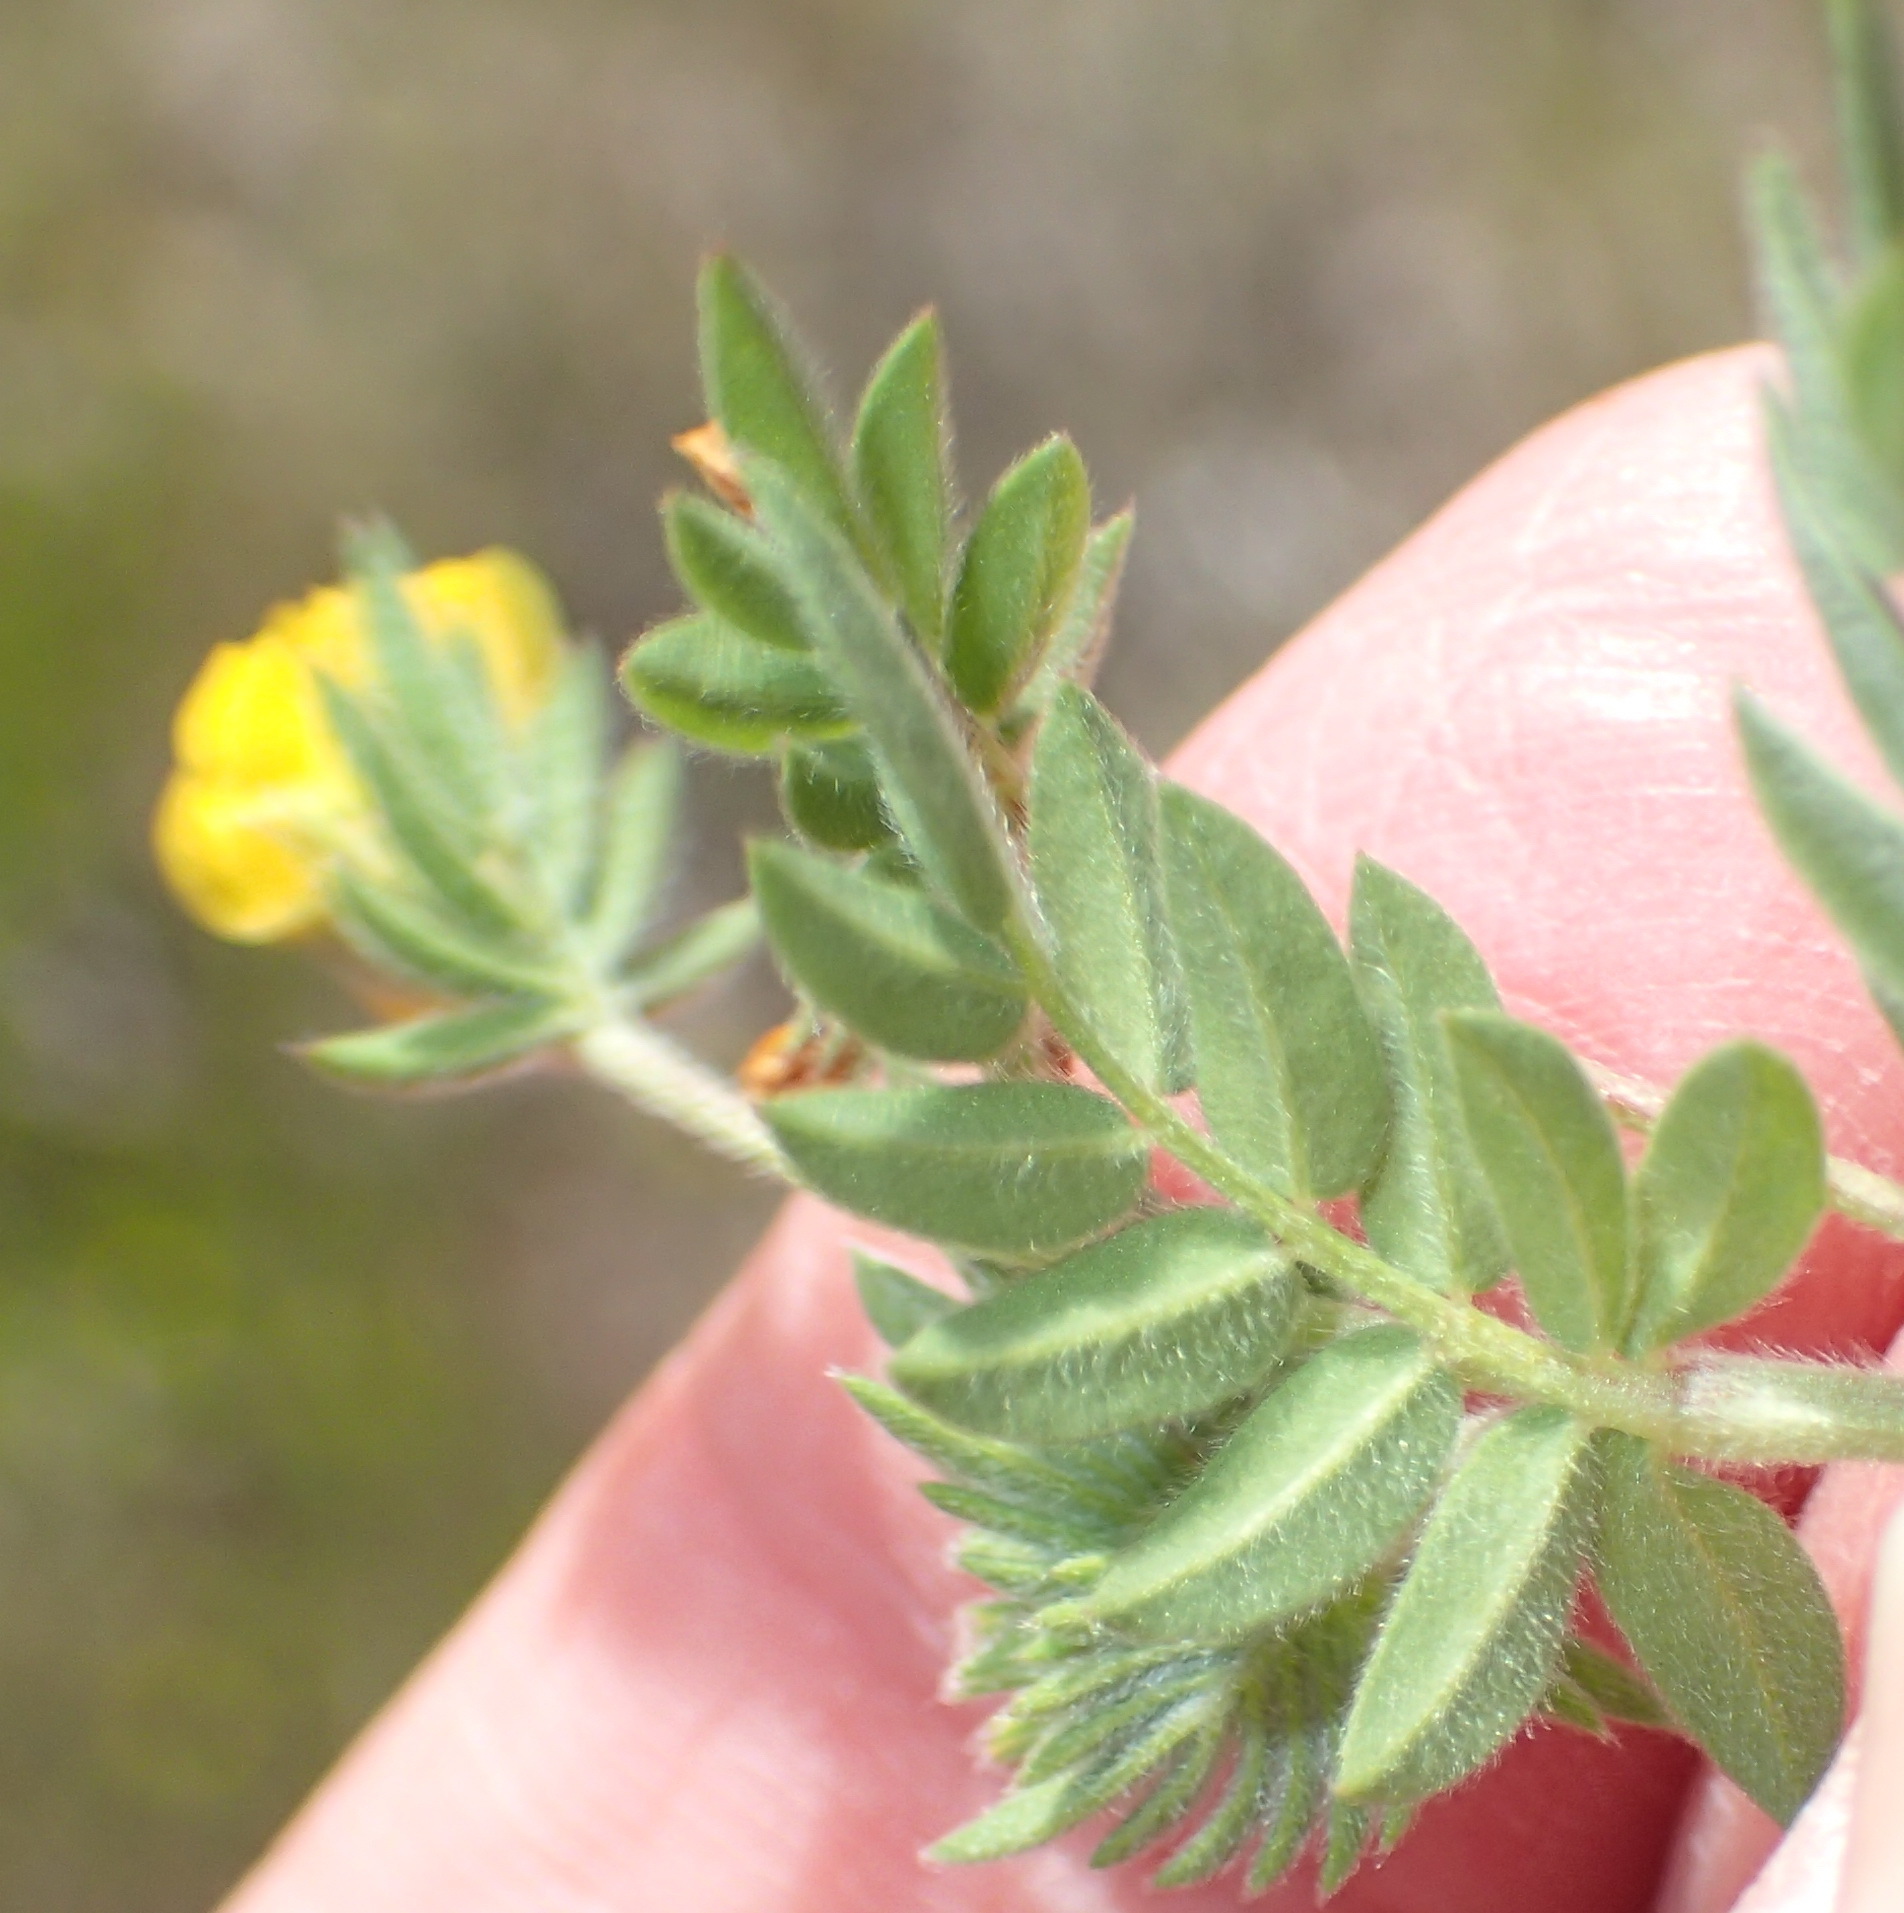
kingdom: Plantae
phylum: Tracheophyta
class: Magnoliopsida
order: Fabales
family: Fabaceae
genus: Ornithopus
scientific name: Ornithopus compressus
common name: Yellow serradella
